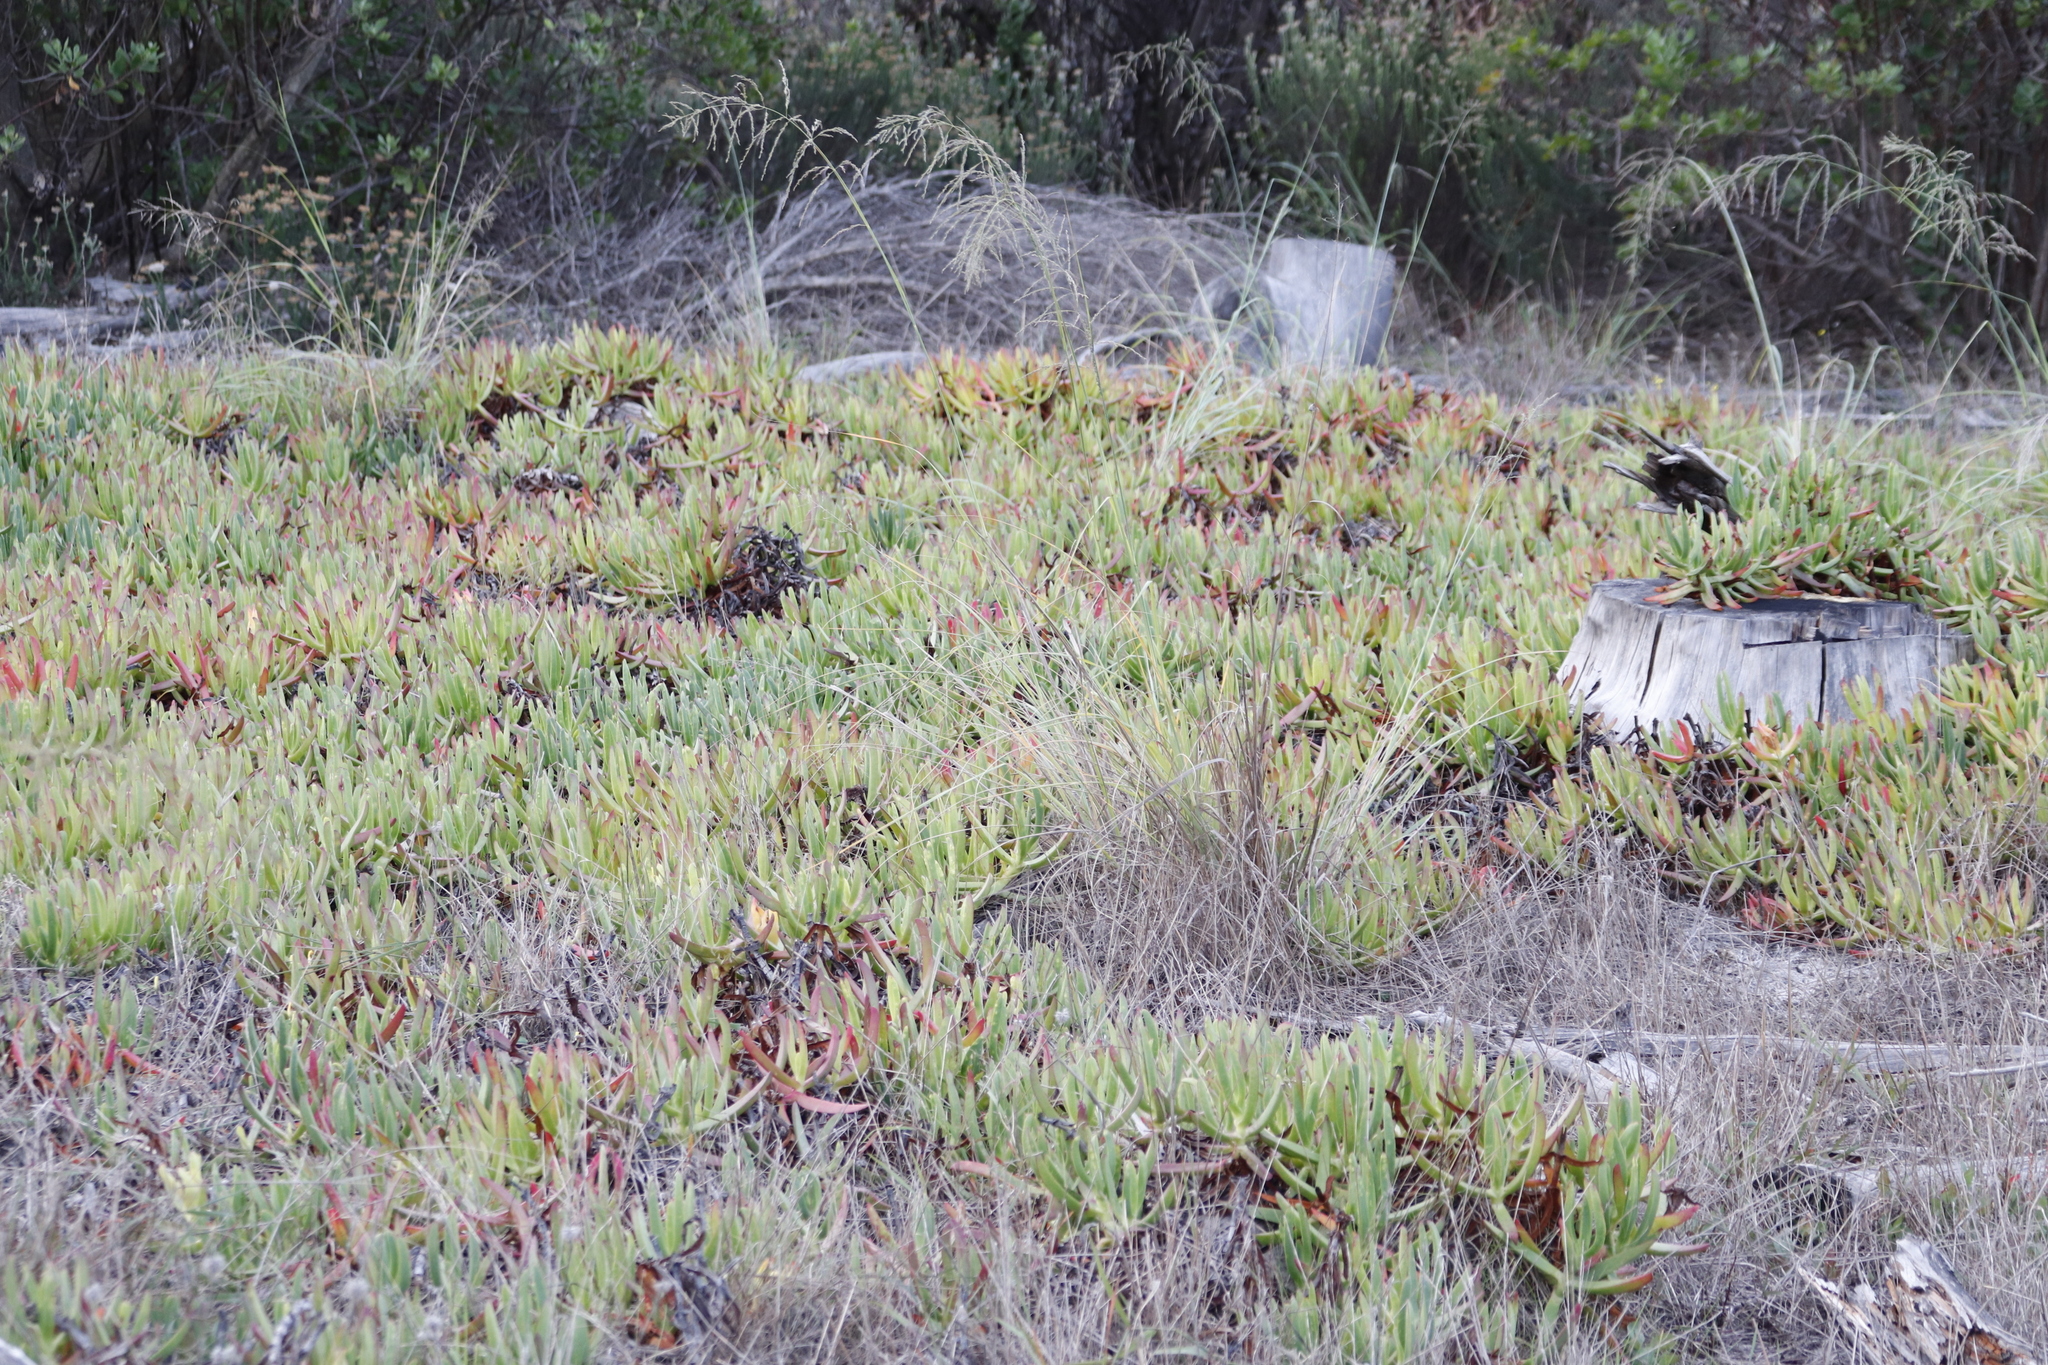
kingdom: Plantae
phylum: Tracheophyta
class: Magnoliopsida
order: Caryophyllales
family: Aizoaceae
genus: Carpobrotus
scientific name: Carpobrotus edulis
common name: Hottentot-fig
